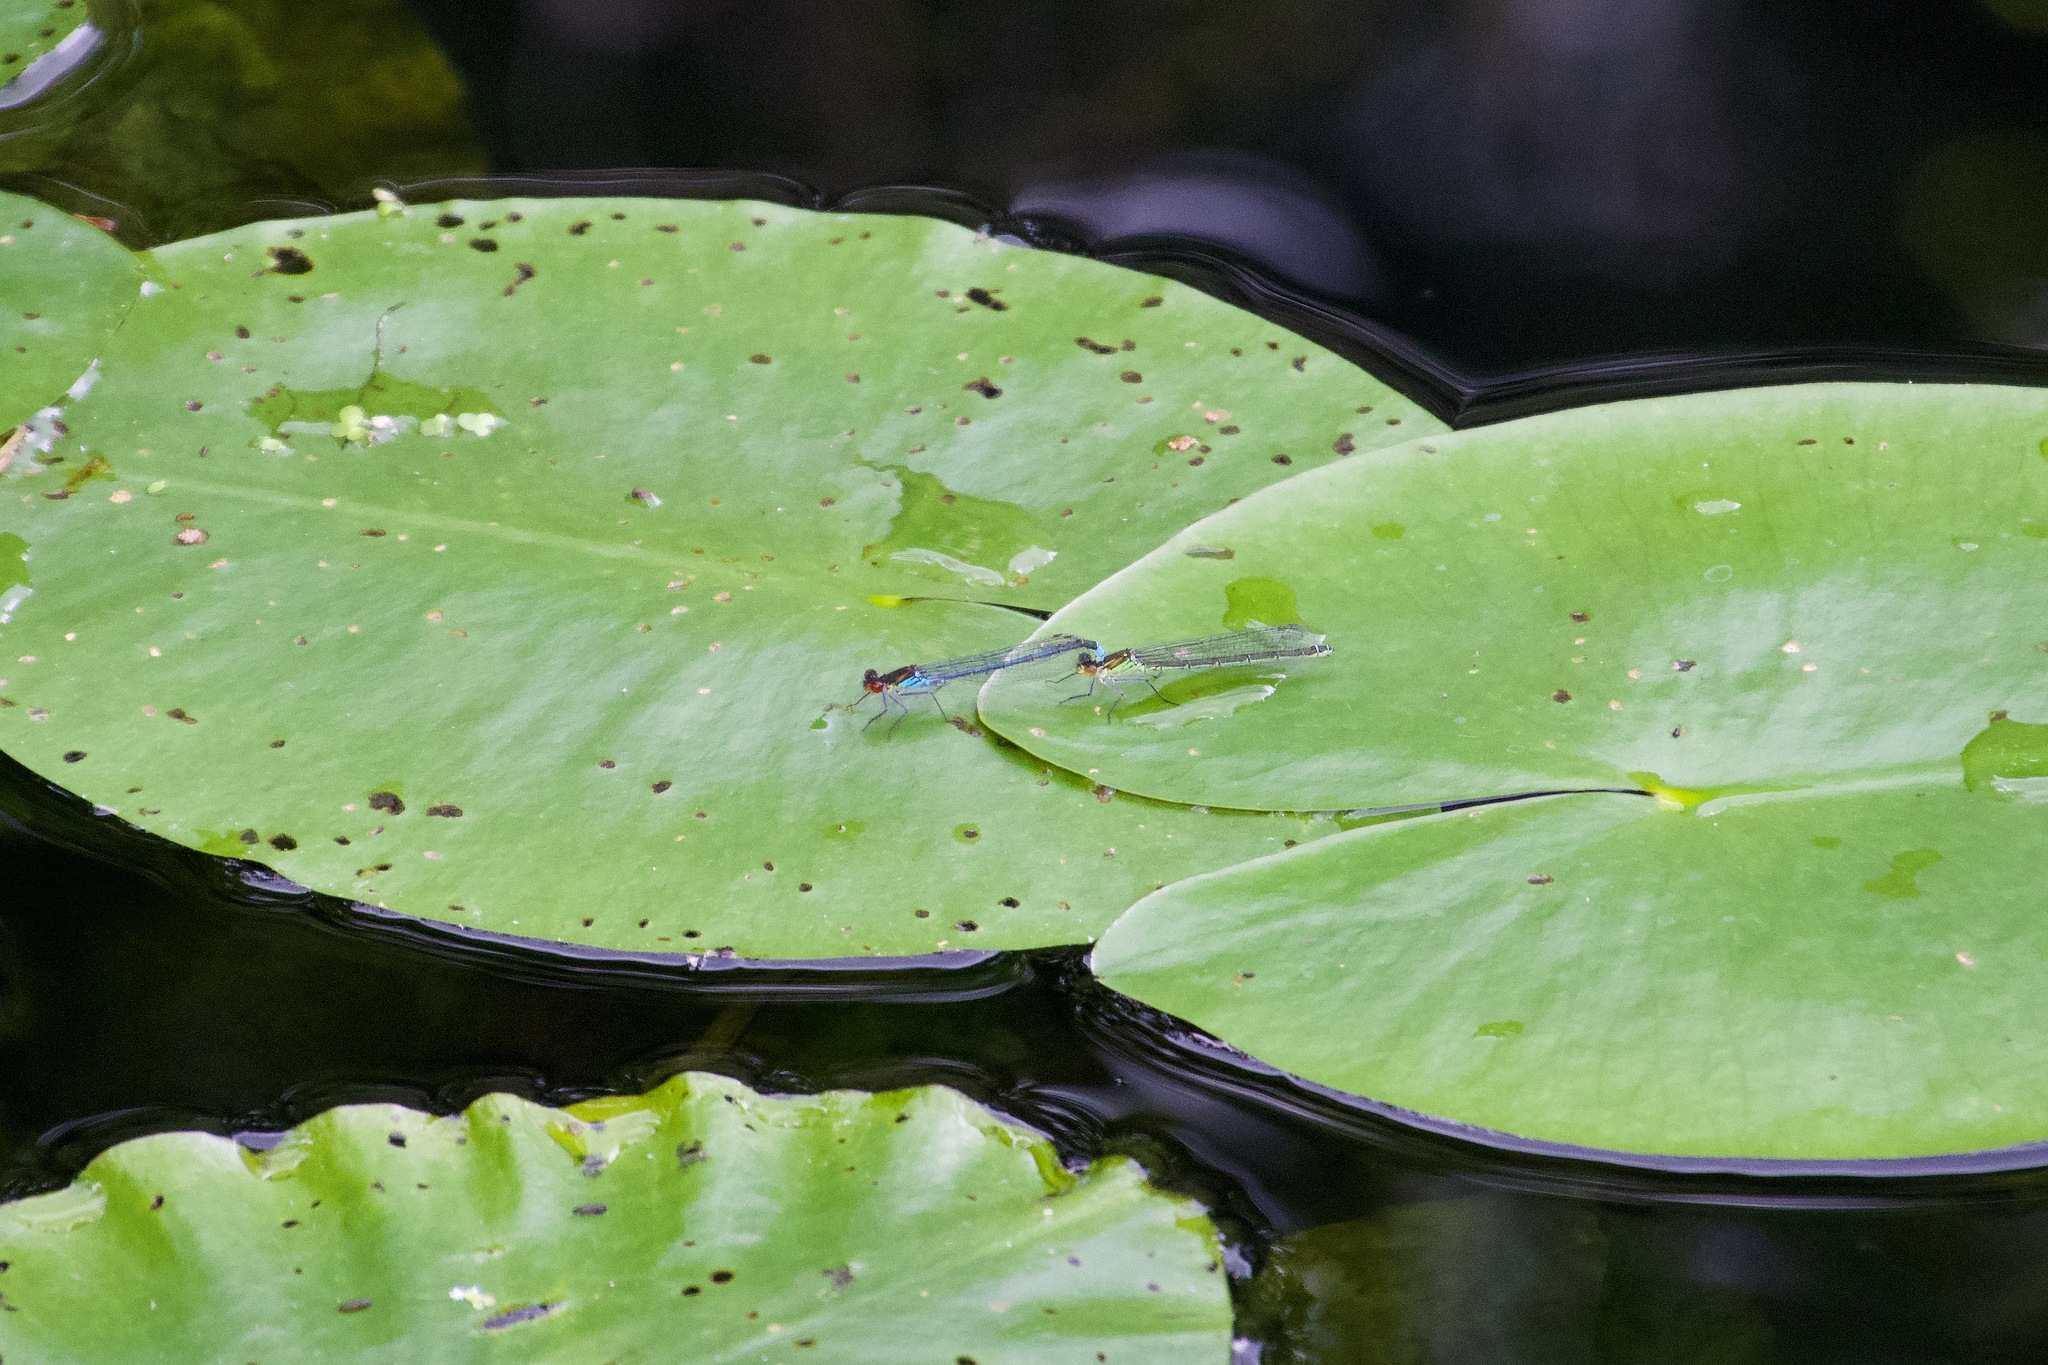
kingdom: Animalia
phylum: Arthropoda
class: Insecta
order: Odonata
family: Coenagrionidae
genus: Erythromma
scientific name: Erythromma najas
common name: Red-eyed damselfly
